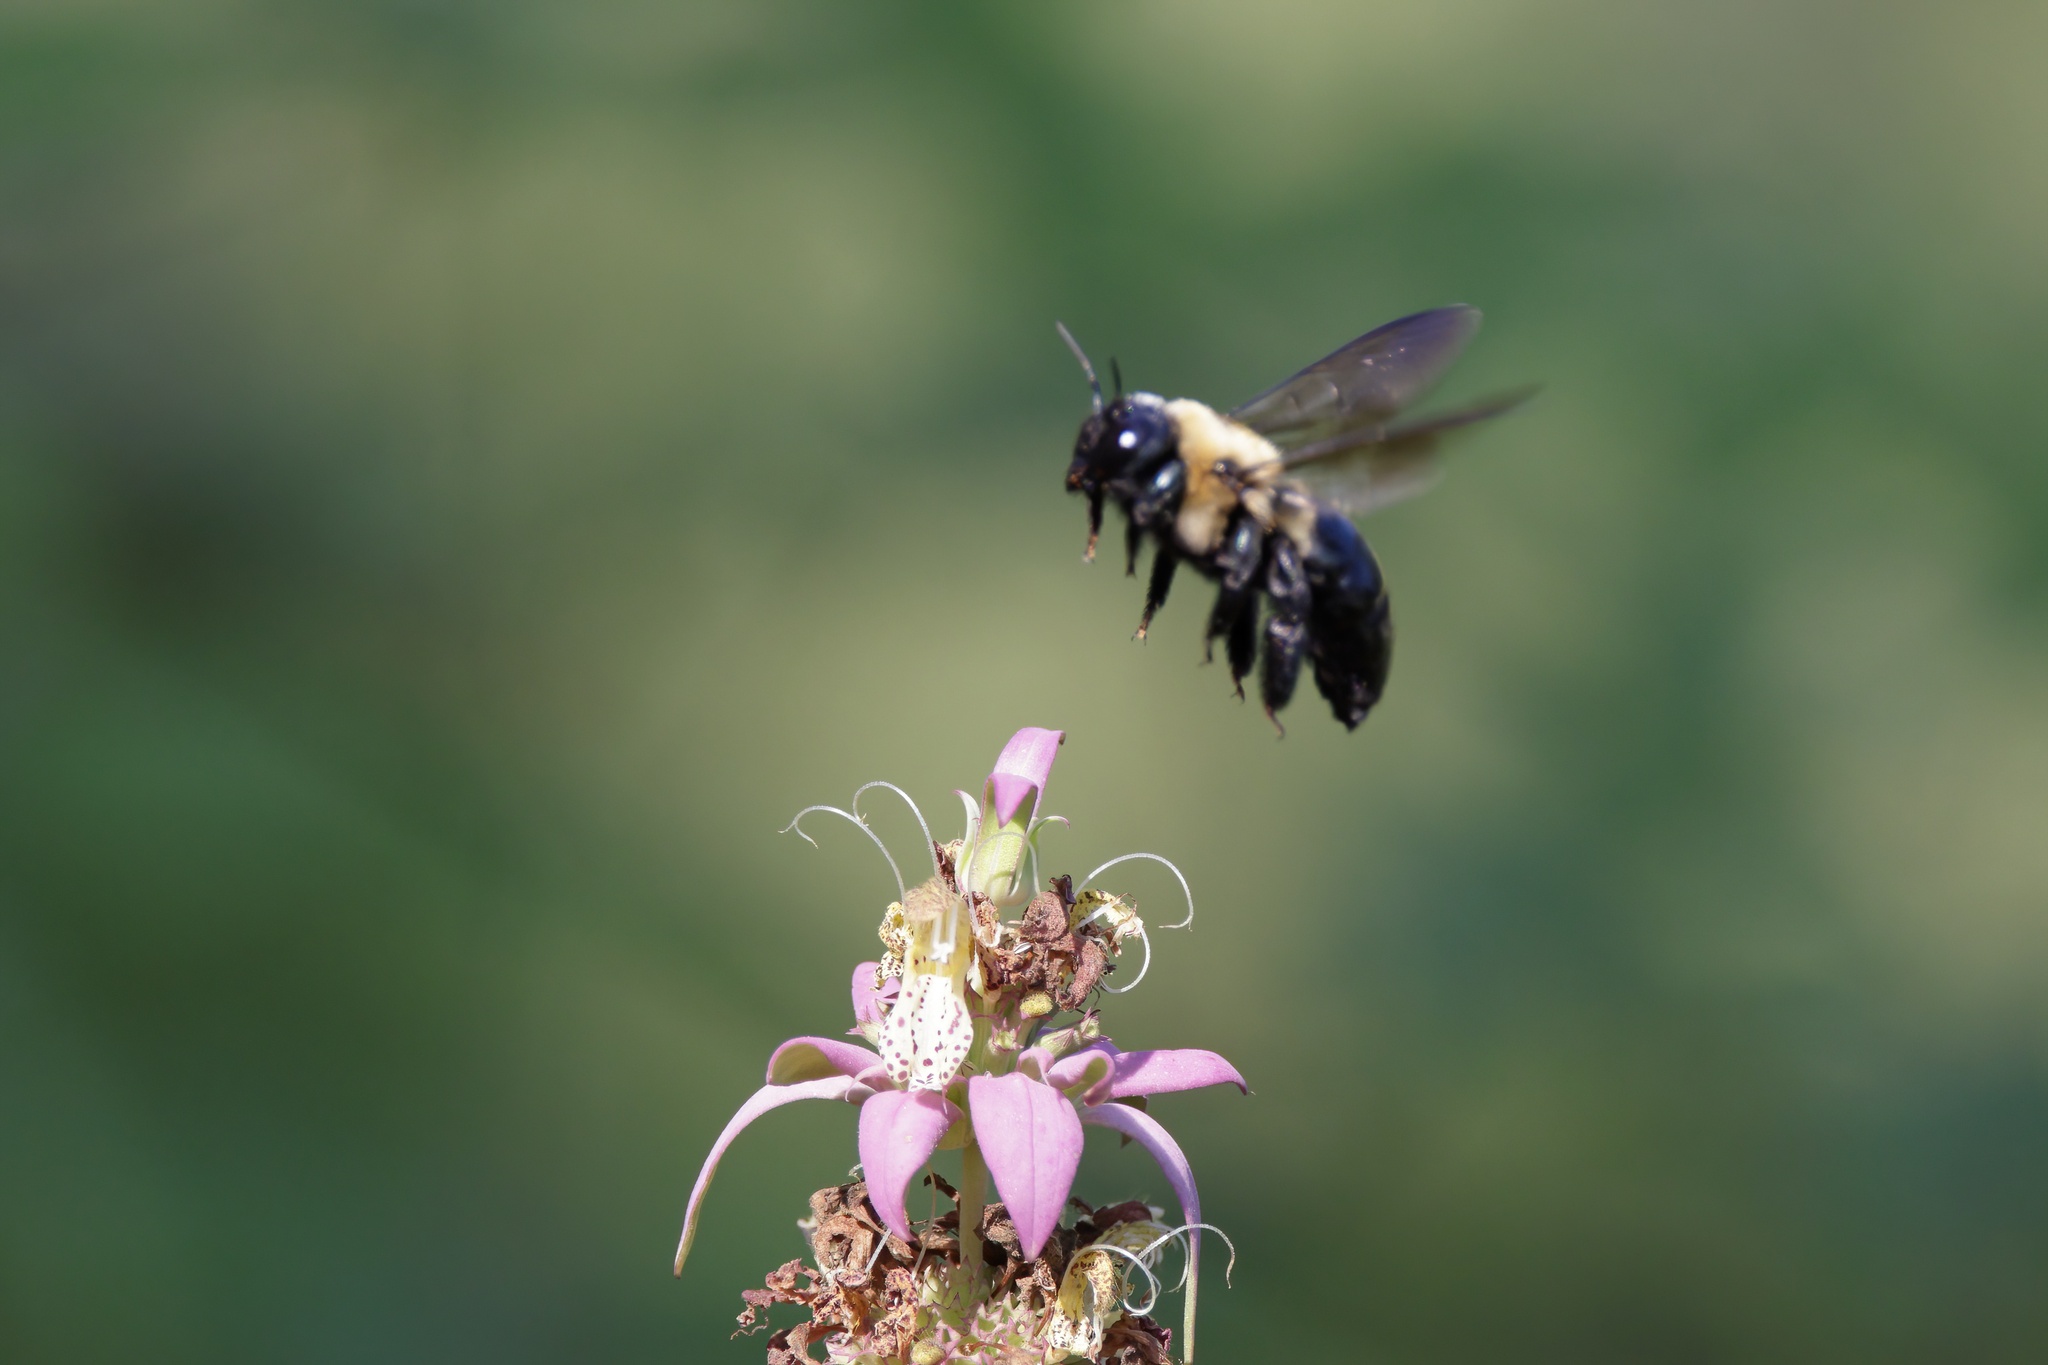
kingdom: Animalia
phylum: Arthropoda
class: Insecta
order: Hymenoptera
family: Apidae
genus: Xylocopa
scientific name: Xylocopa virginica
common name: Carpenter bee
